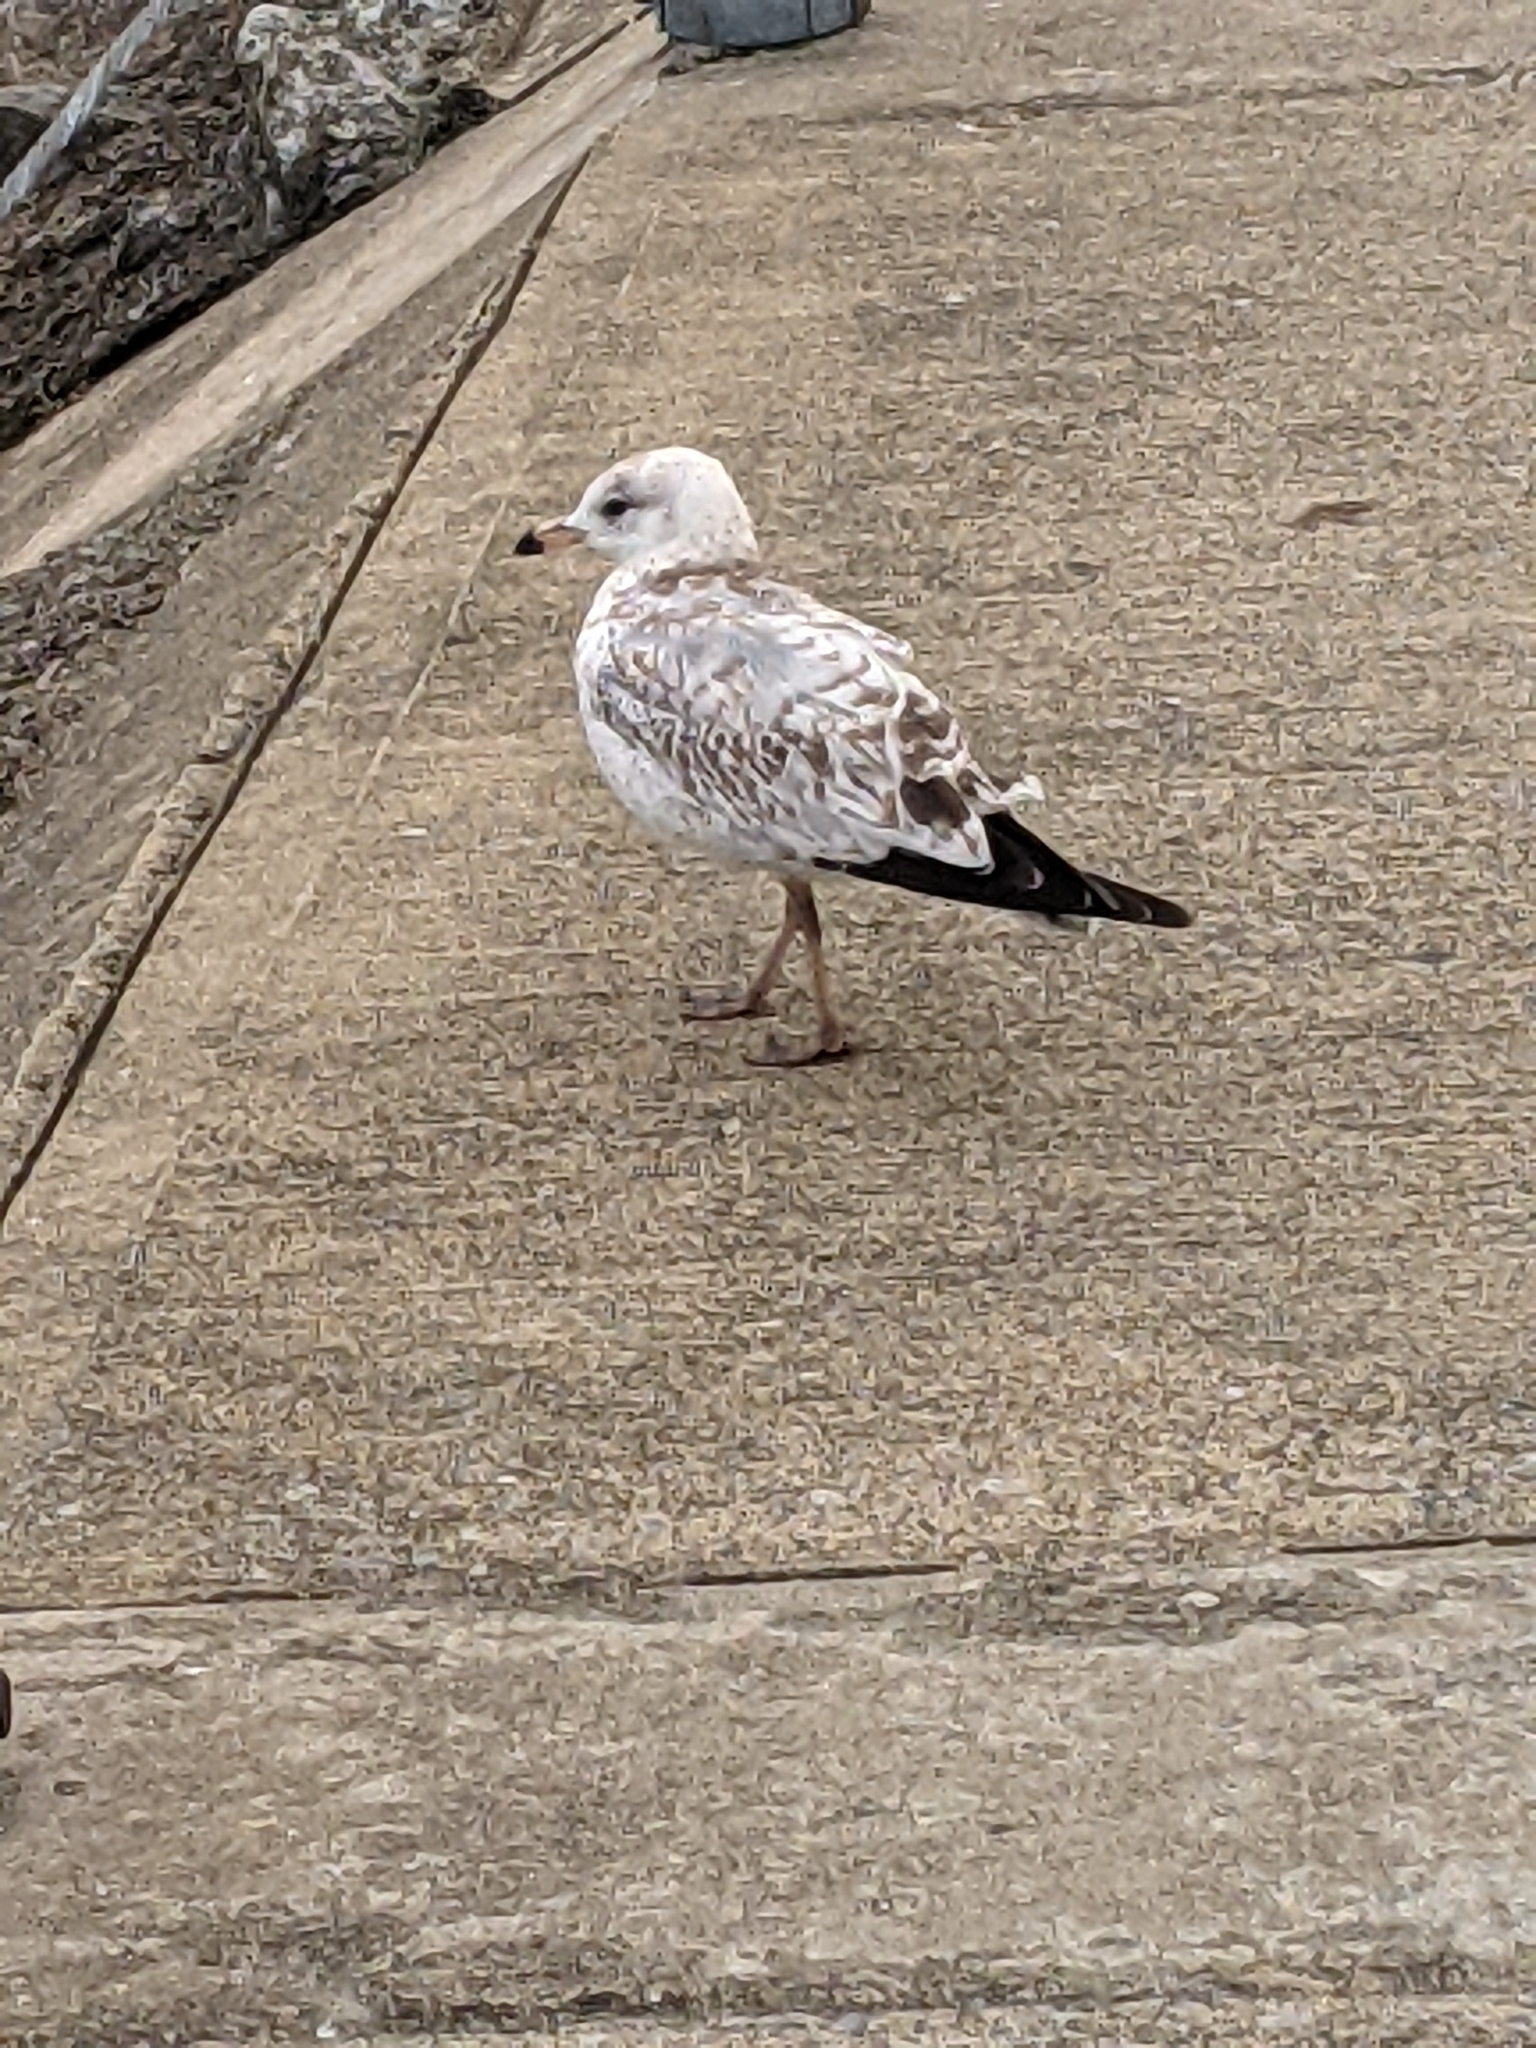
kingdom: Animalia
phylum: Chordata
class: Aves
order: Charadriiformes
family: Laridae
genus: Larus
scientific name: Larus delawarensis
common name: Ring-billed gull
